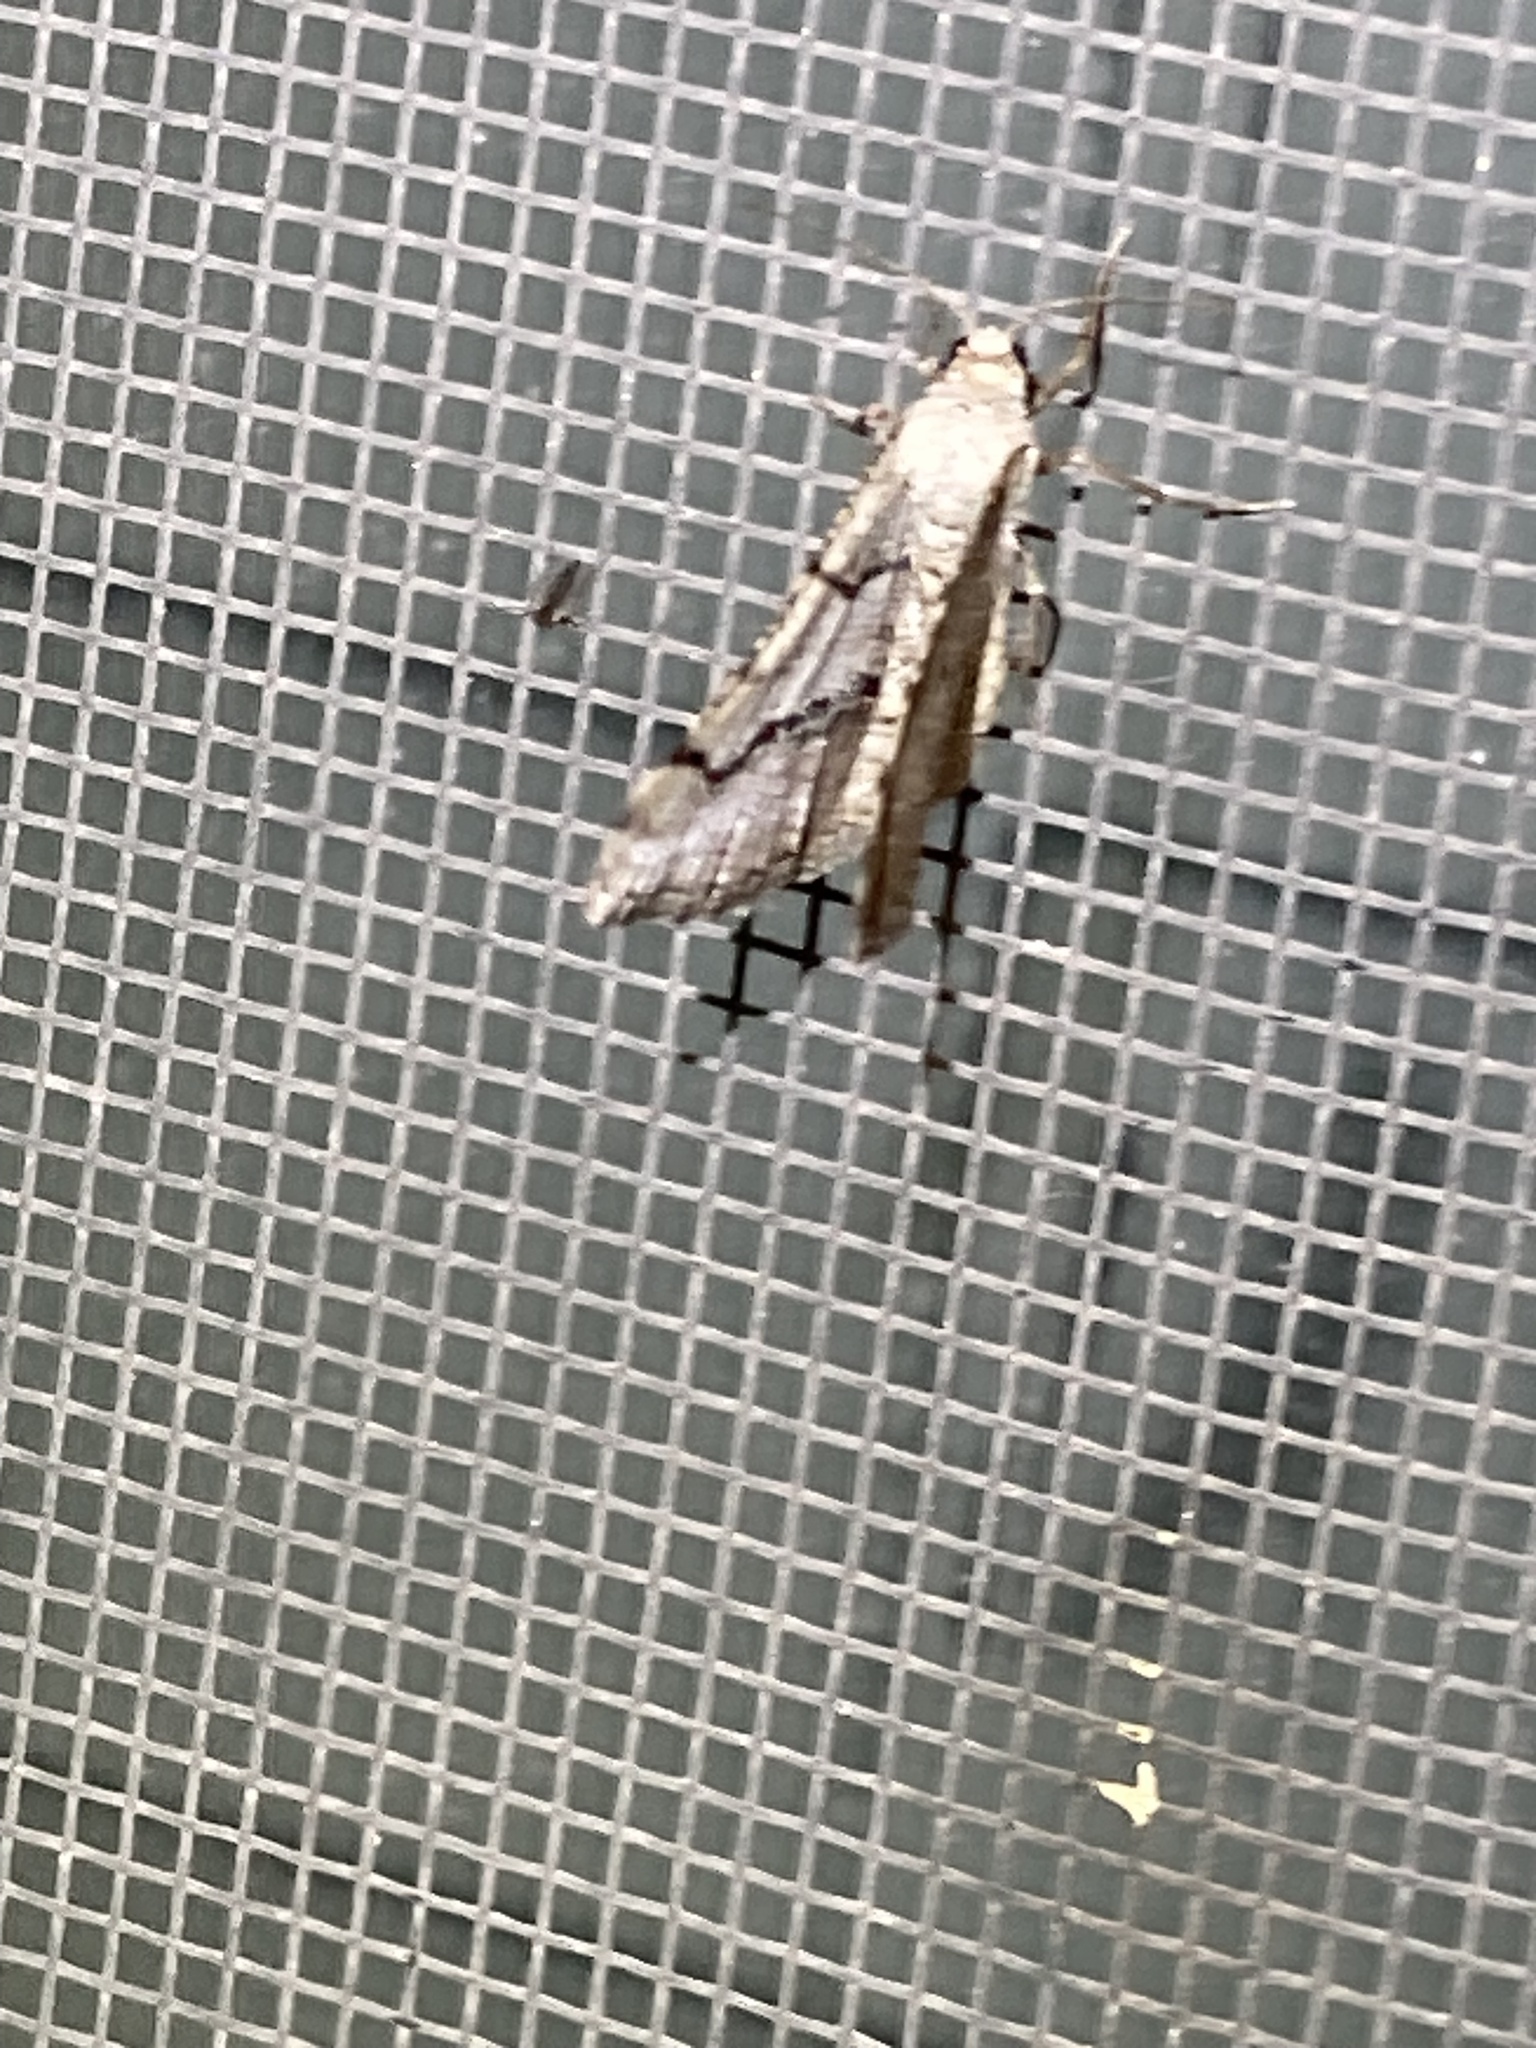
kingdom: Animalia
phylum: Arthropoda
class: Insecta
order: Lepidoptera
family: Geometridae
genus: Digrammia
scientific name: Digrammia continuata
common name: Curve-lined angle
